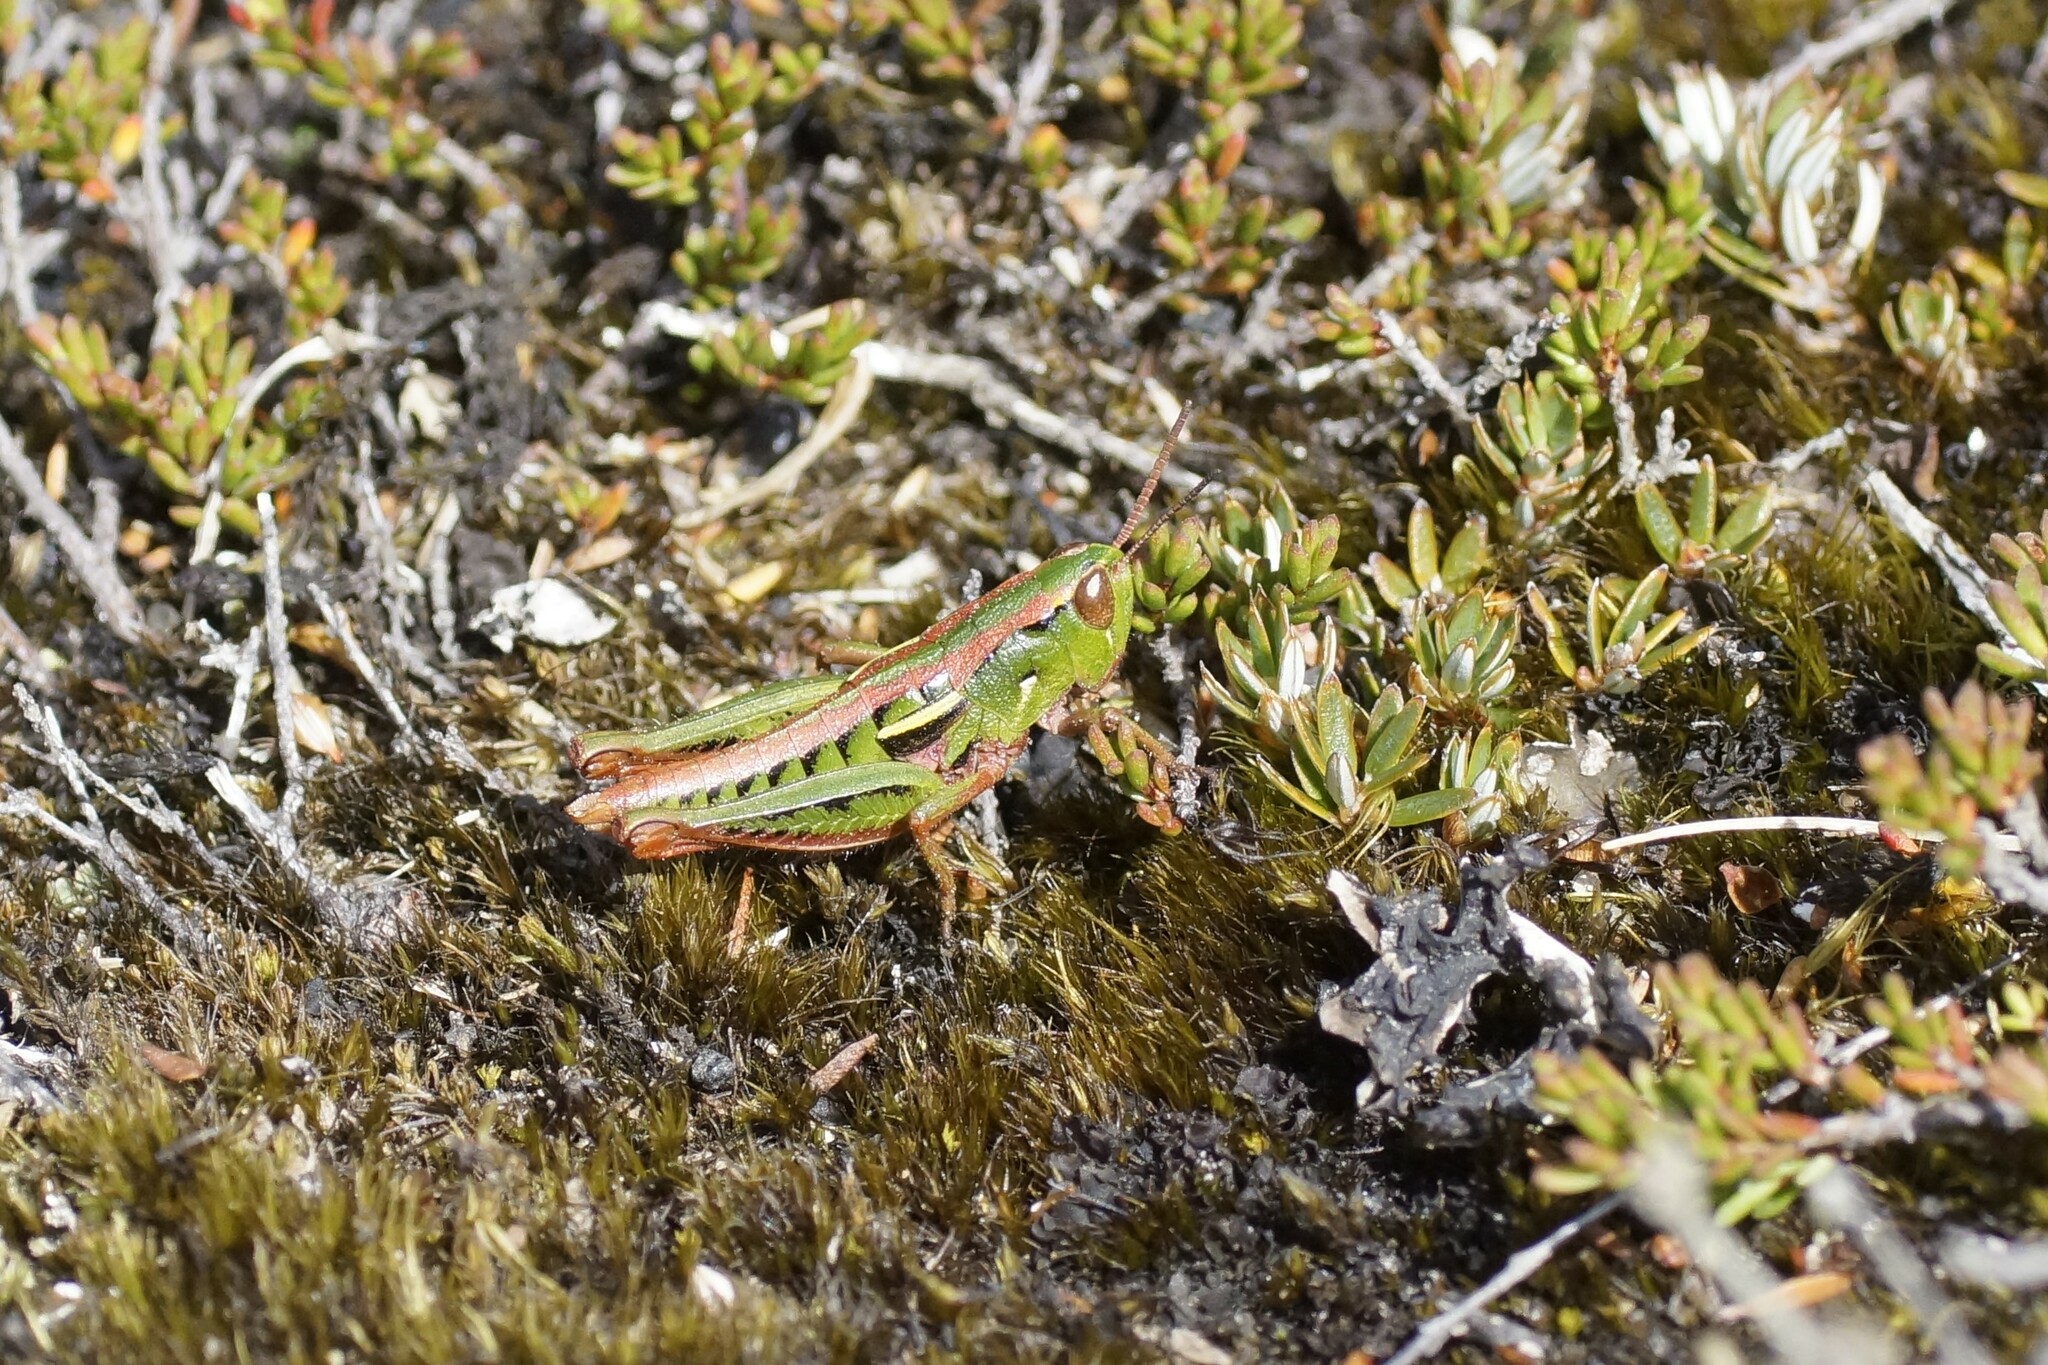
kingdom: Animalia
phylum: Arthropoda
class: Insecta
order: Orthoptera
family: Acrididae
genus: Russalpia
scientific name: Russalpia albertisi
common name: Tassie hopper
